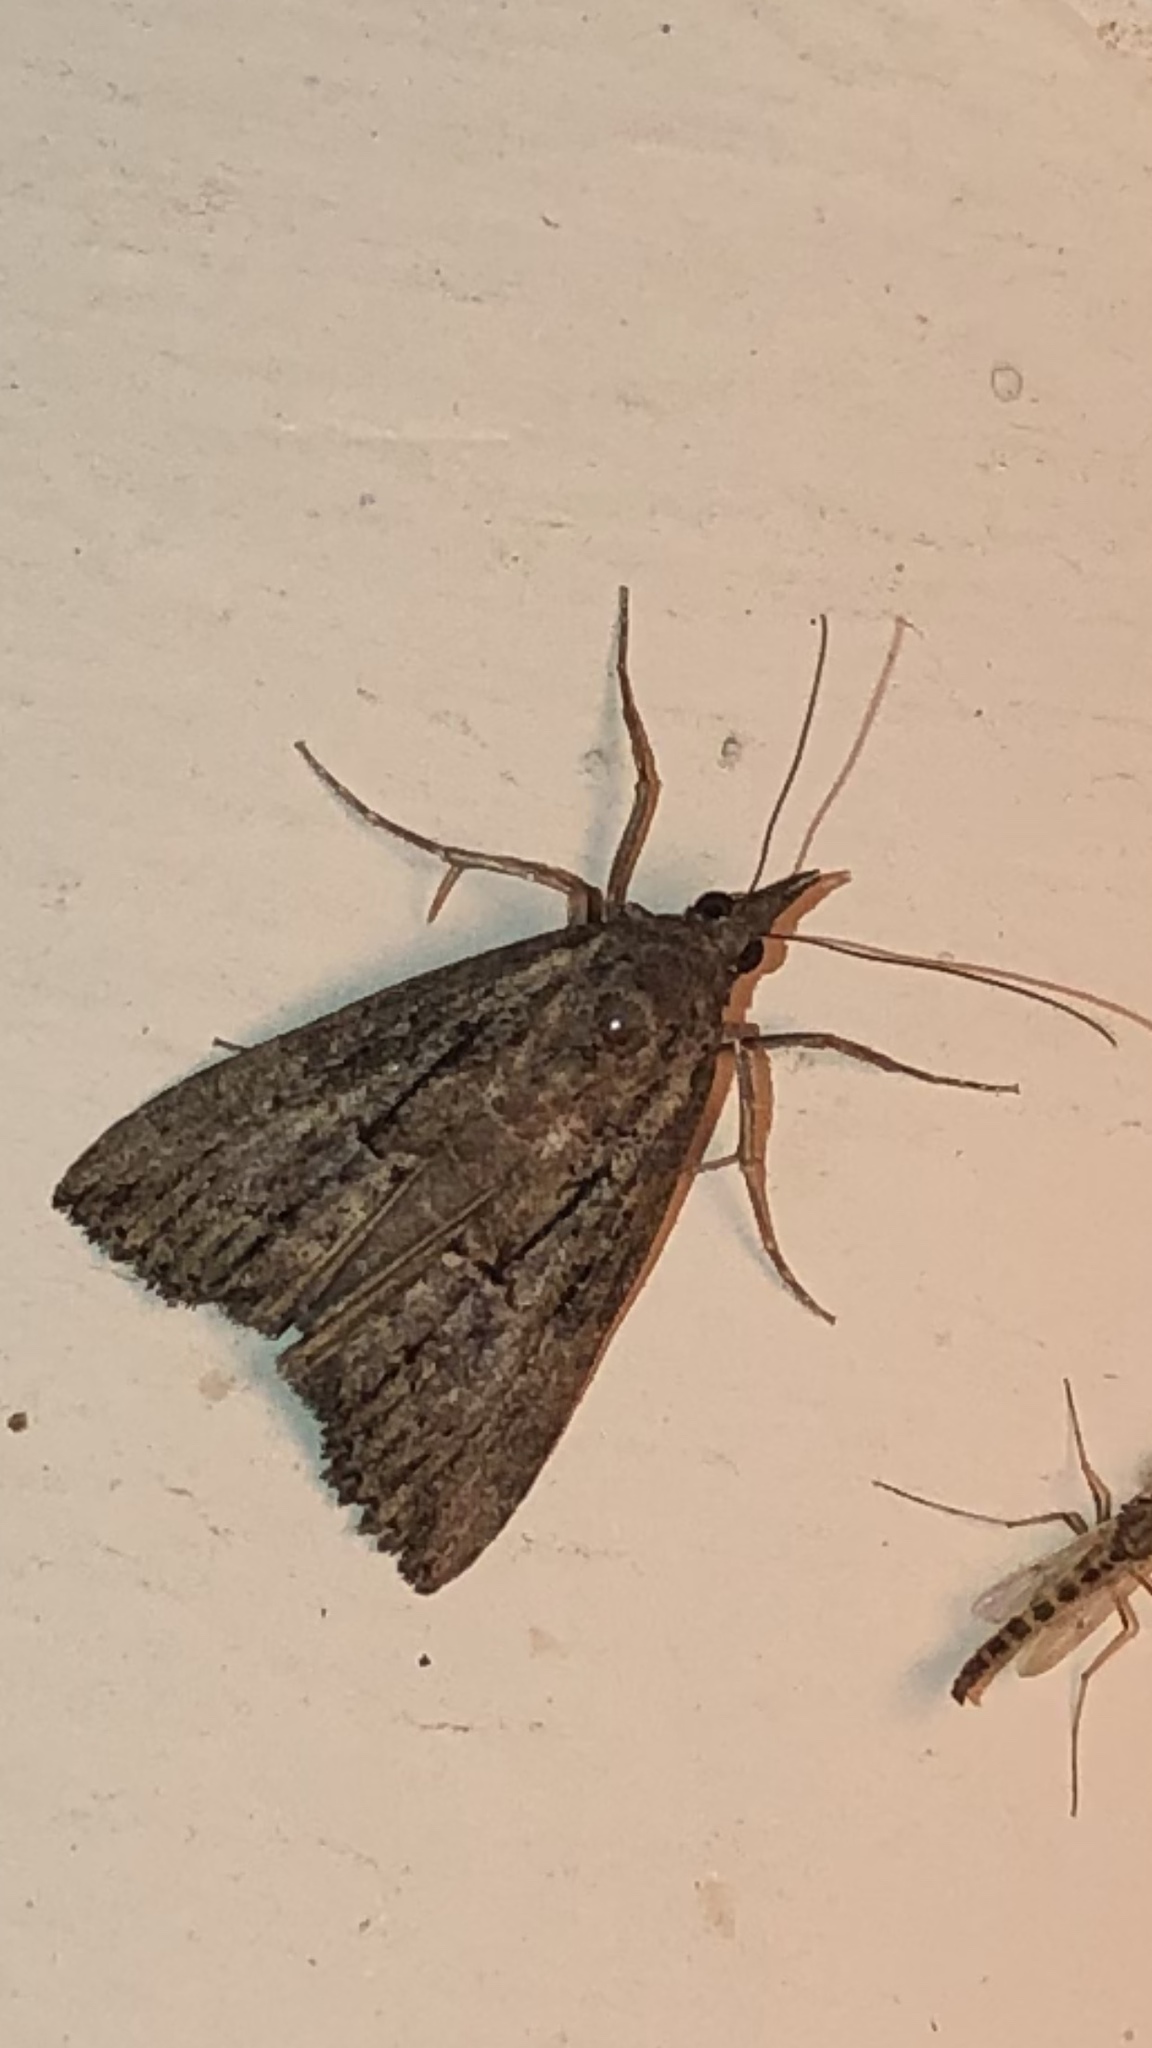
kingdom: Animalia
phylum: Arthropoda
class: Insecta
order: Lepidoptera
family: Erebidae
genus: Hypena
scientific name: Hypena scabra
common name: Green cloverworm
